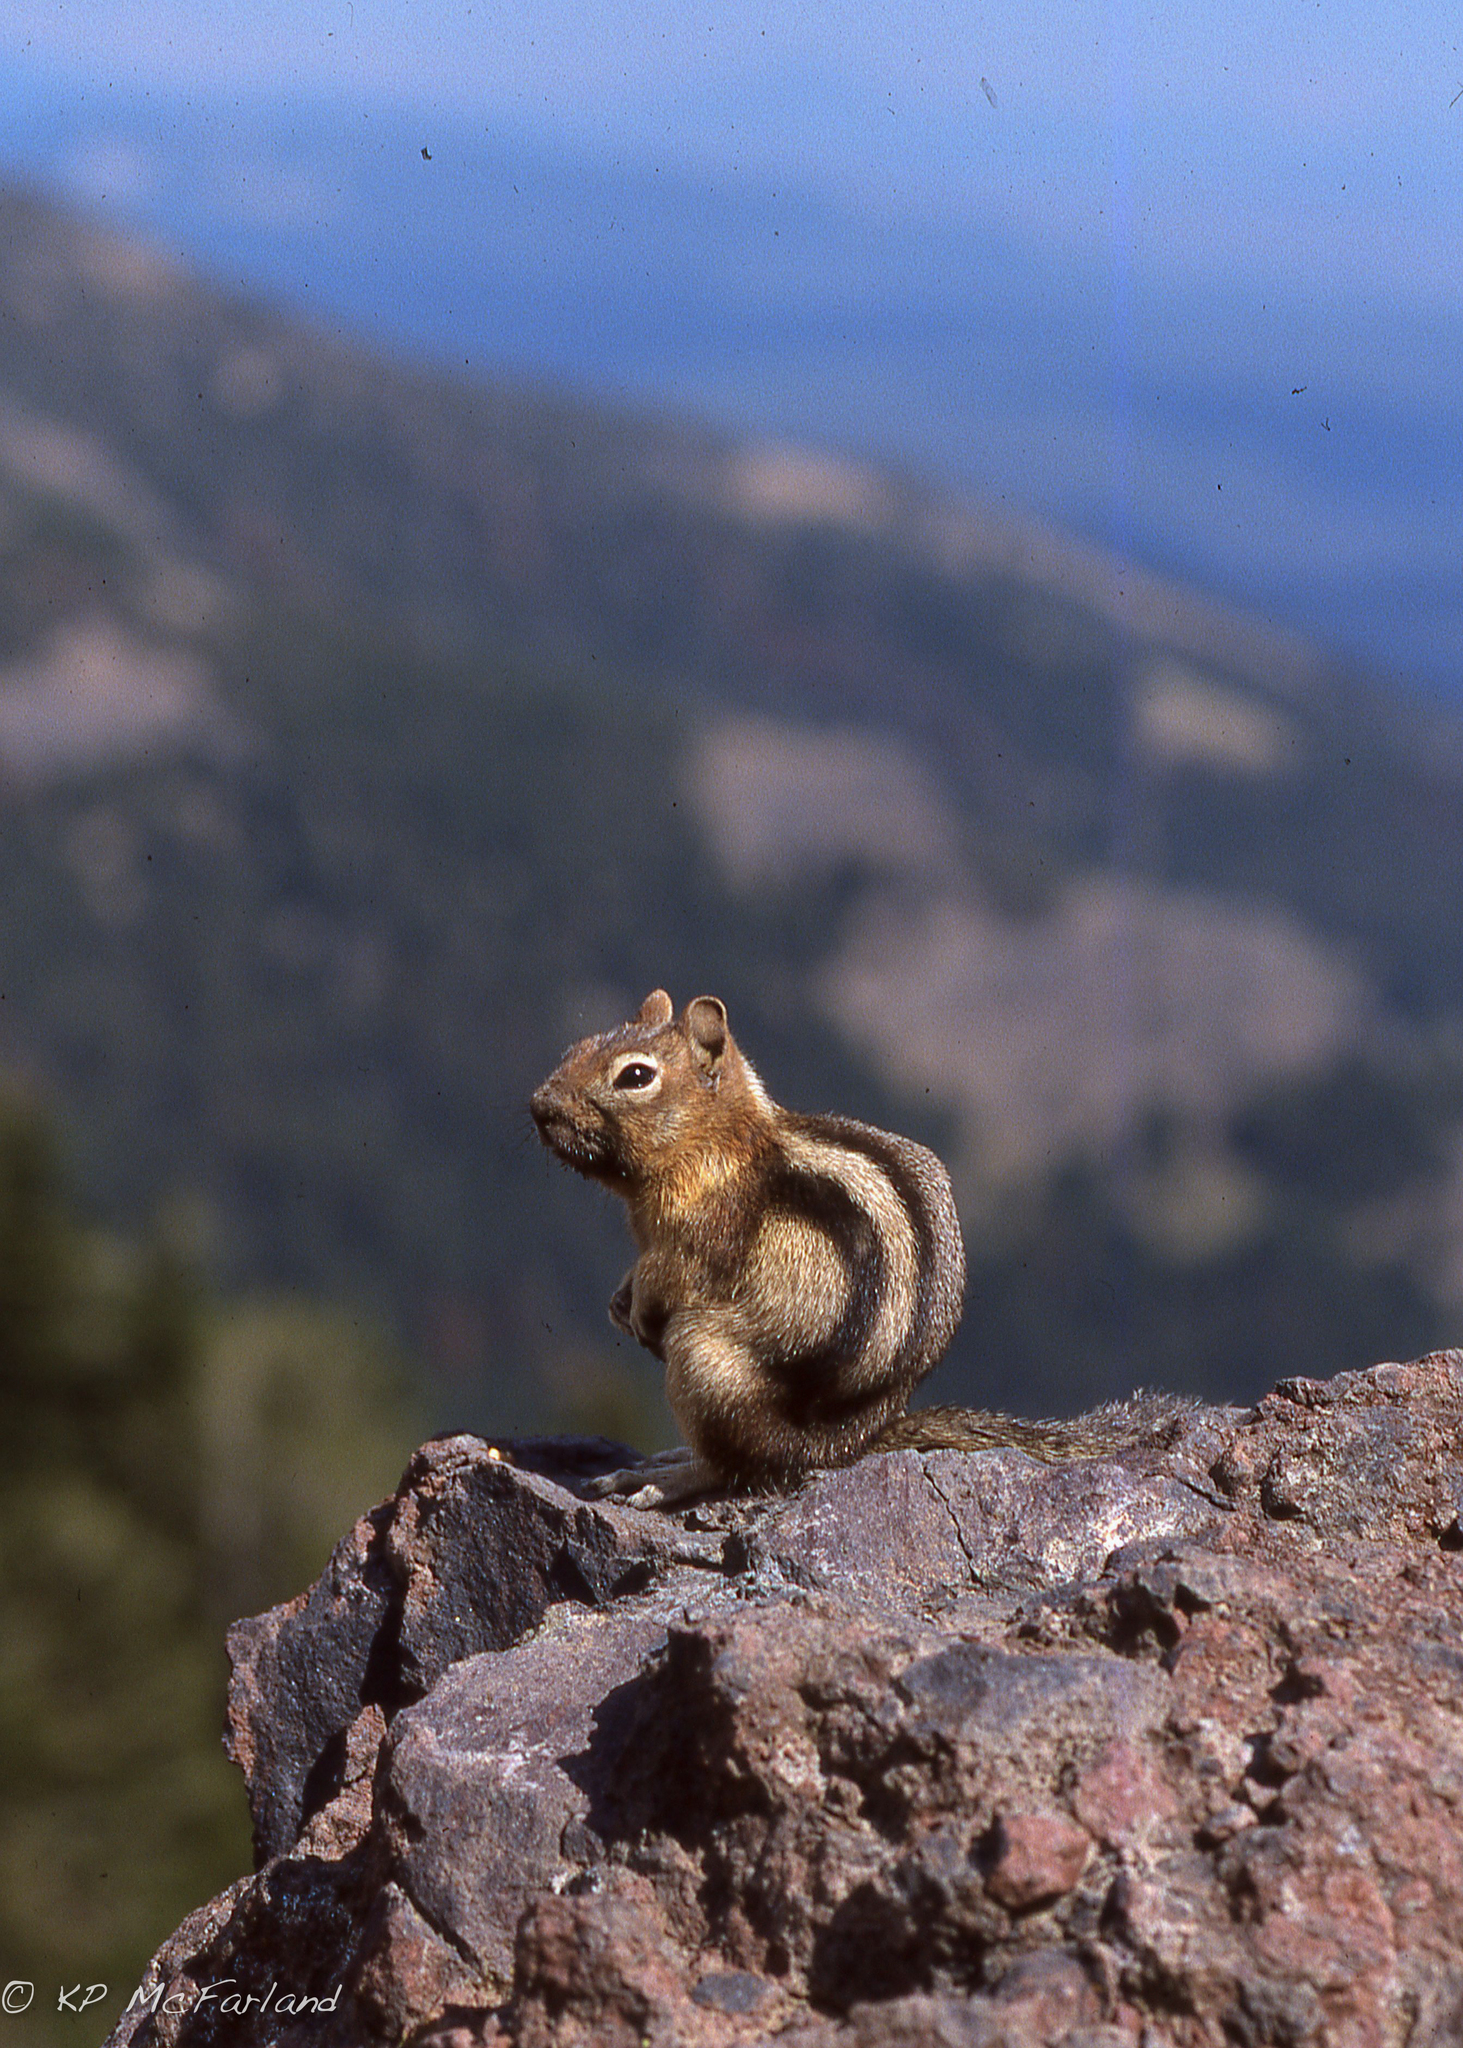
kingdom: Animalia
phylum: Chordata
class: Mammalia
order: Rodentia
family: Sciuridae
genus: Callospermophilus
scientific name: Callospermophilus lateralis
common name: Golden-mantled ground squirrel
